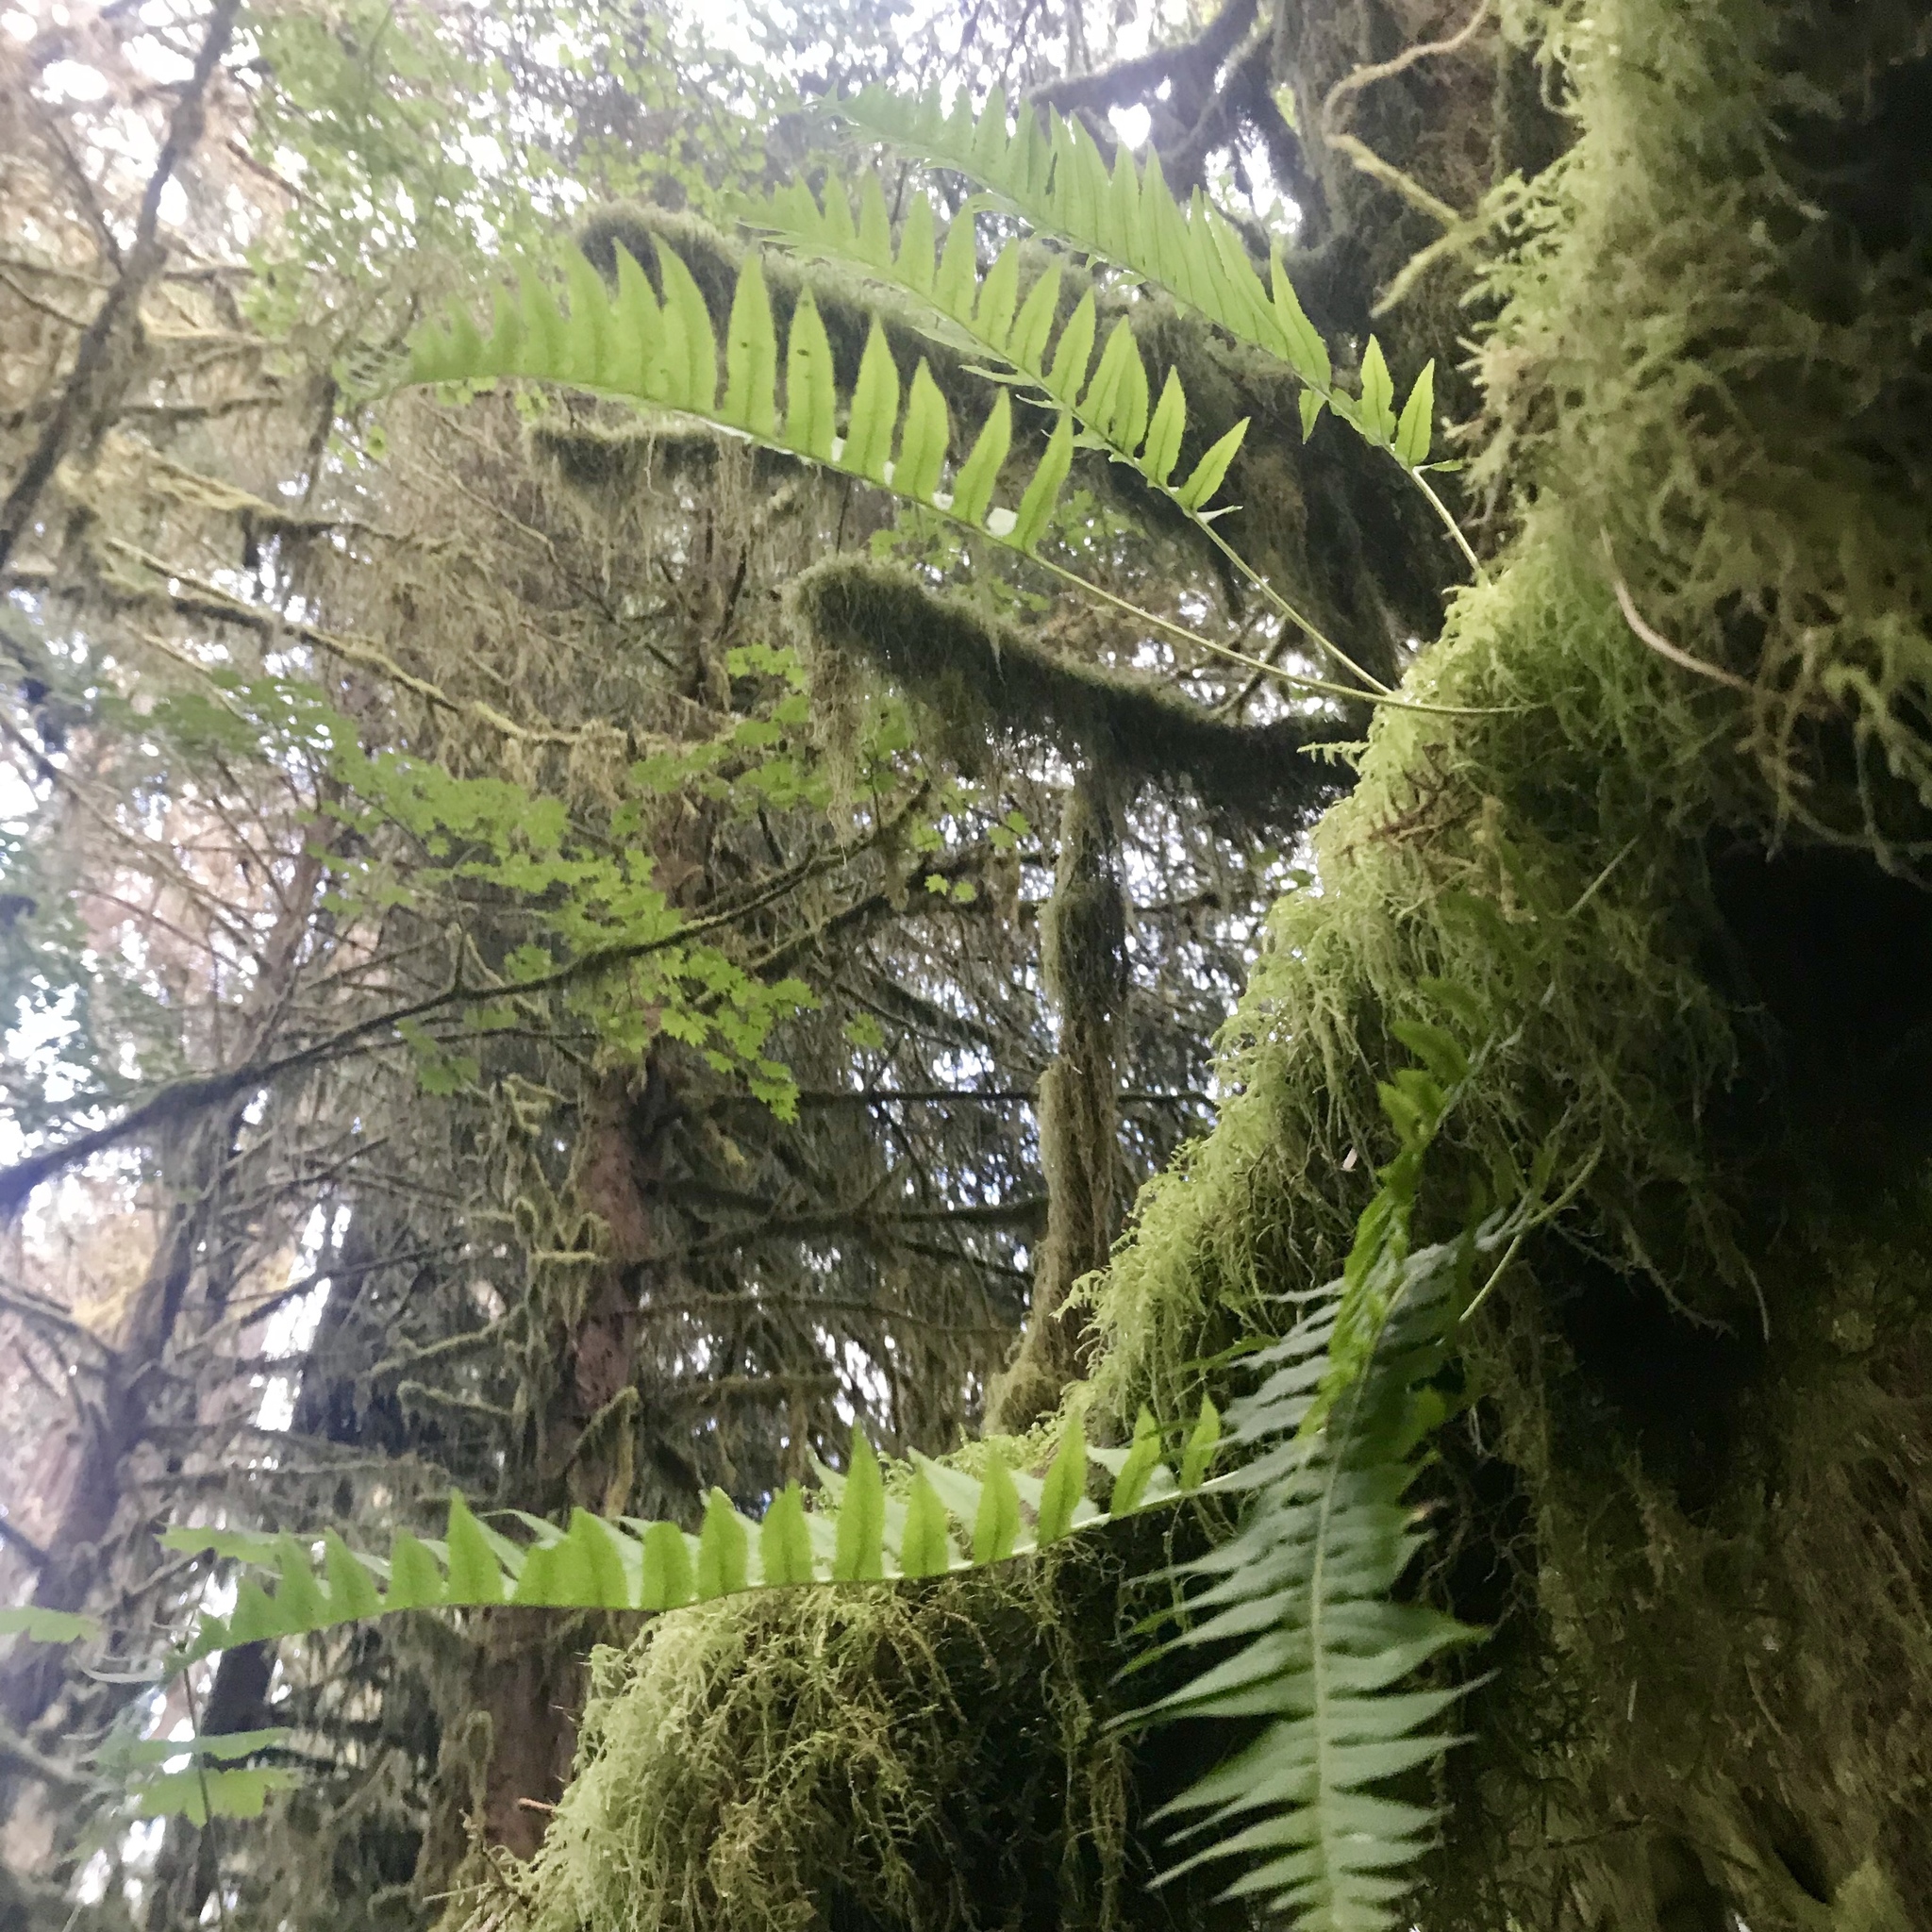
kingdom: Plantae
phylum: Tracheophyta
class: Polypodiopsida
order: Polypodiales
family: Polypodiaceae
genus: Polypodium
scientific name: Polypodium glycyrrhiza
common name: Licorice fern
